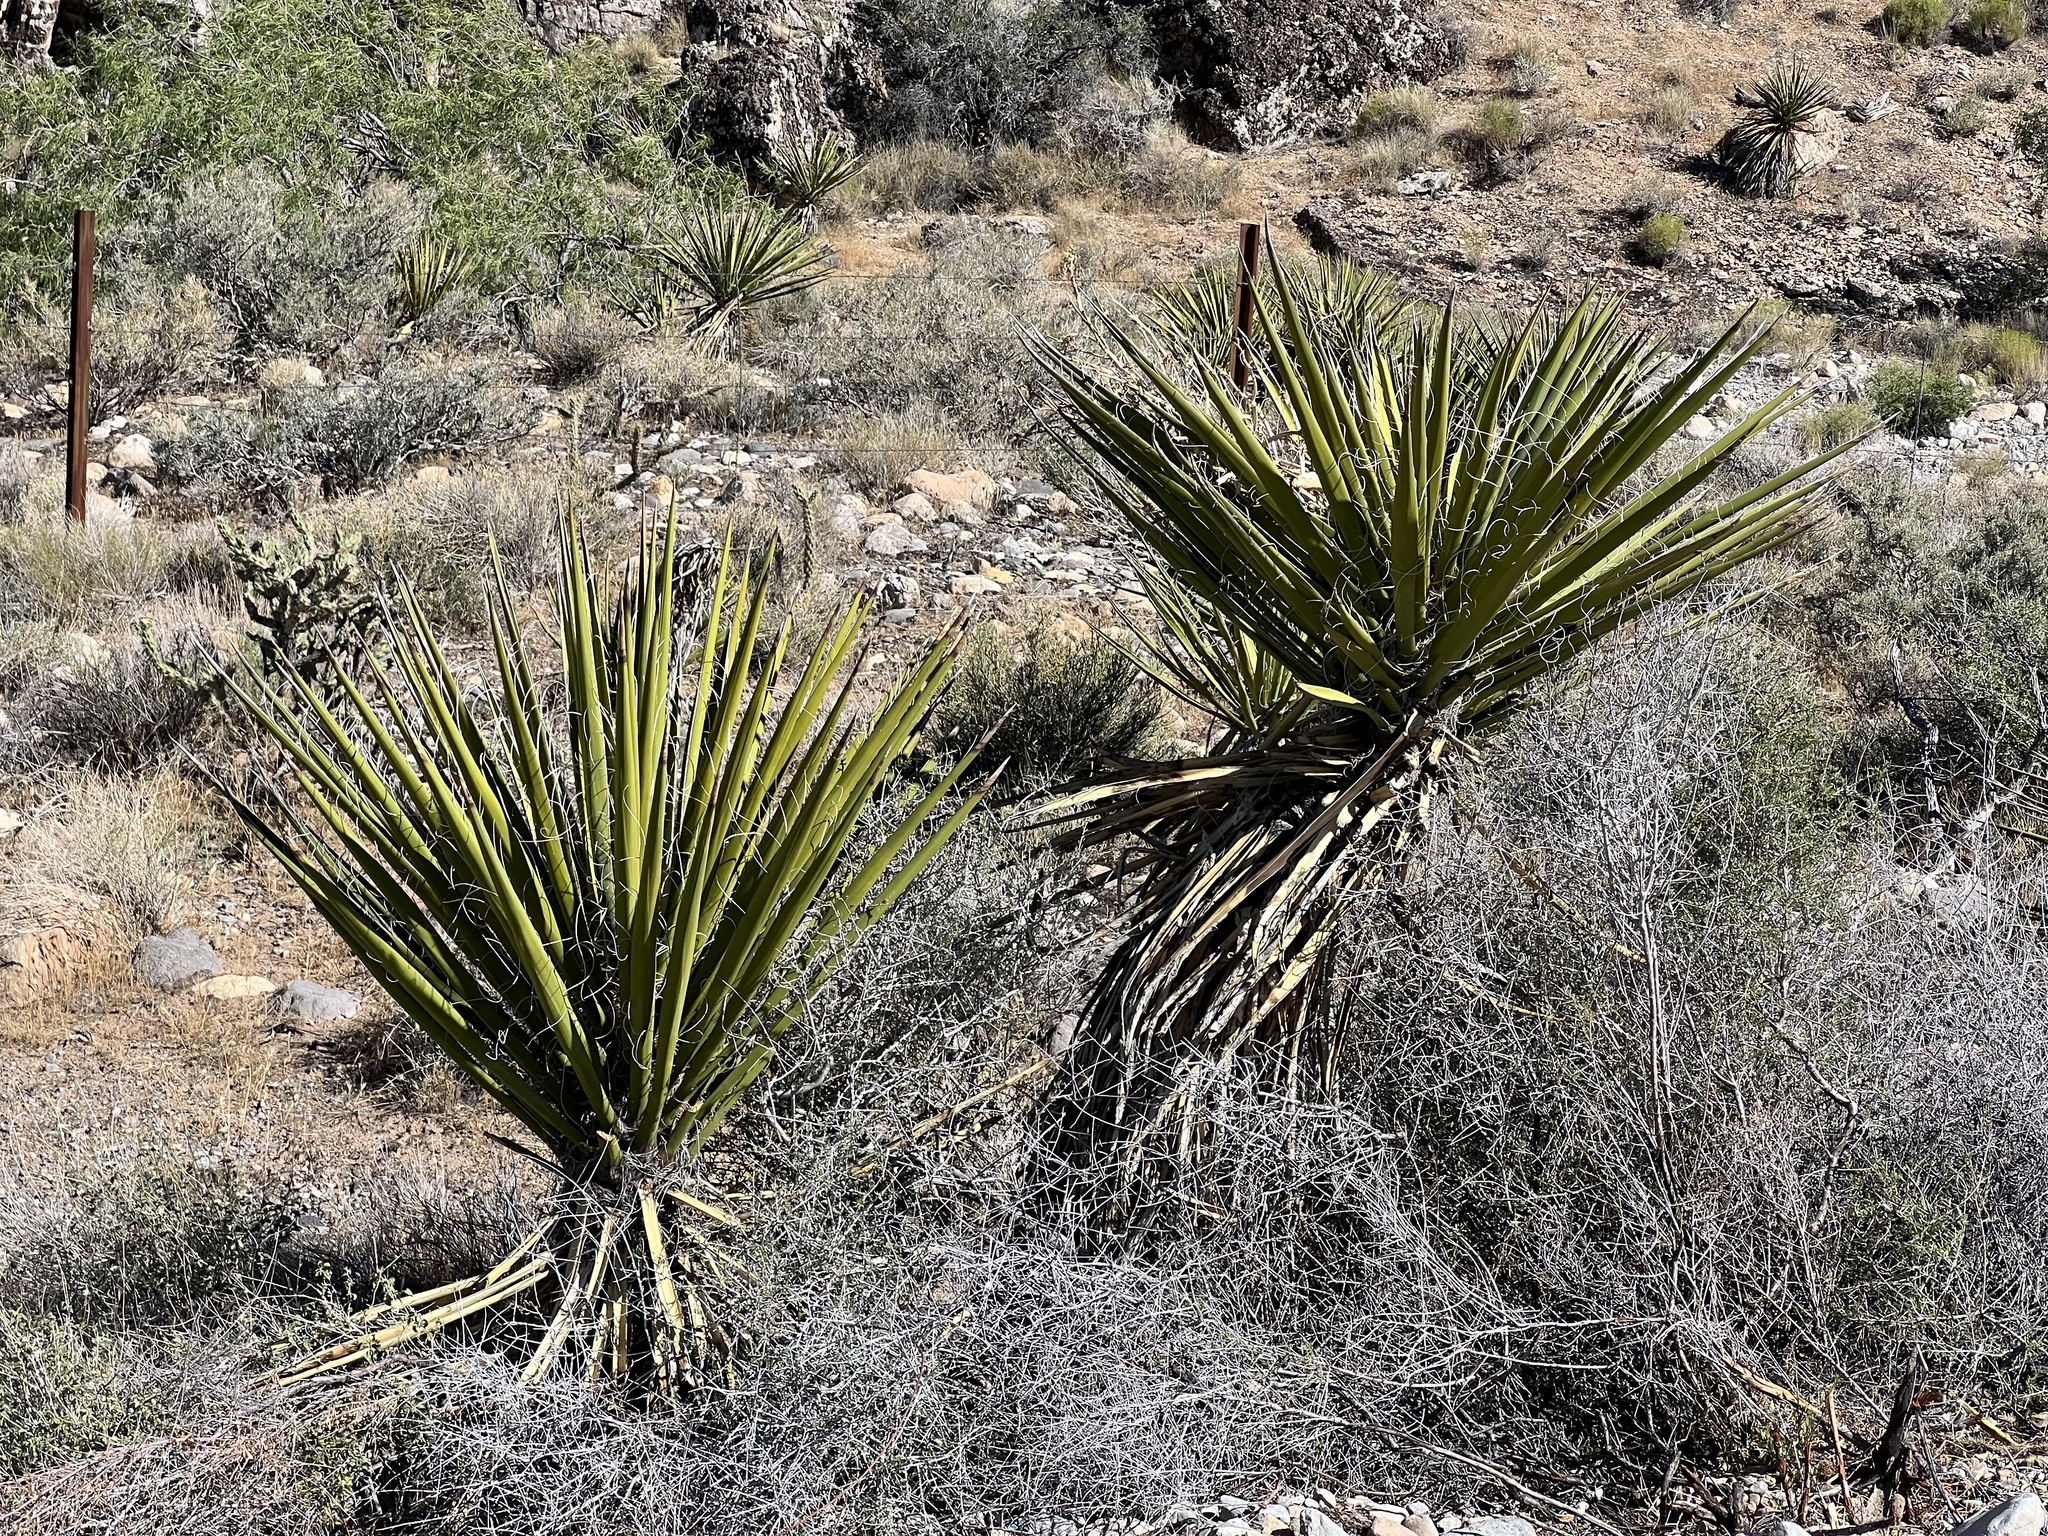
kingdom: Plantae
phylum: Tracheophyta
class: Liliopsida
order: Asparagales
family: Asparagaceae
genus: Yucca
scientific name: Yucca schidigera
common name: Mojave yucca
